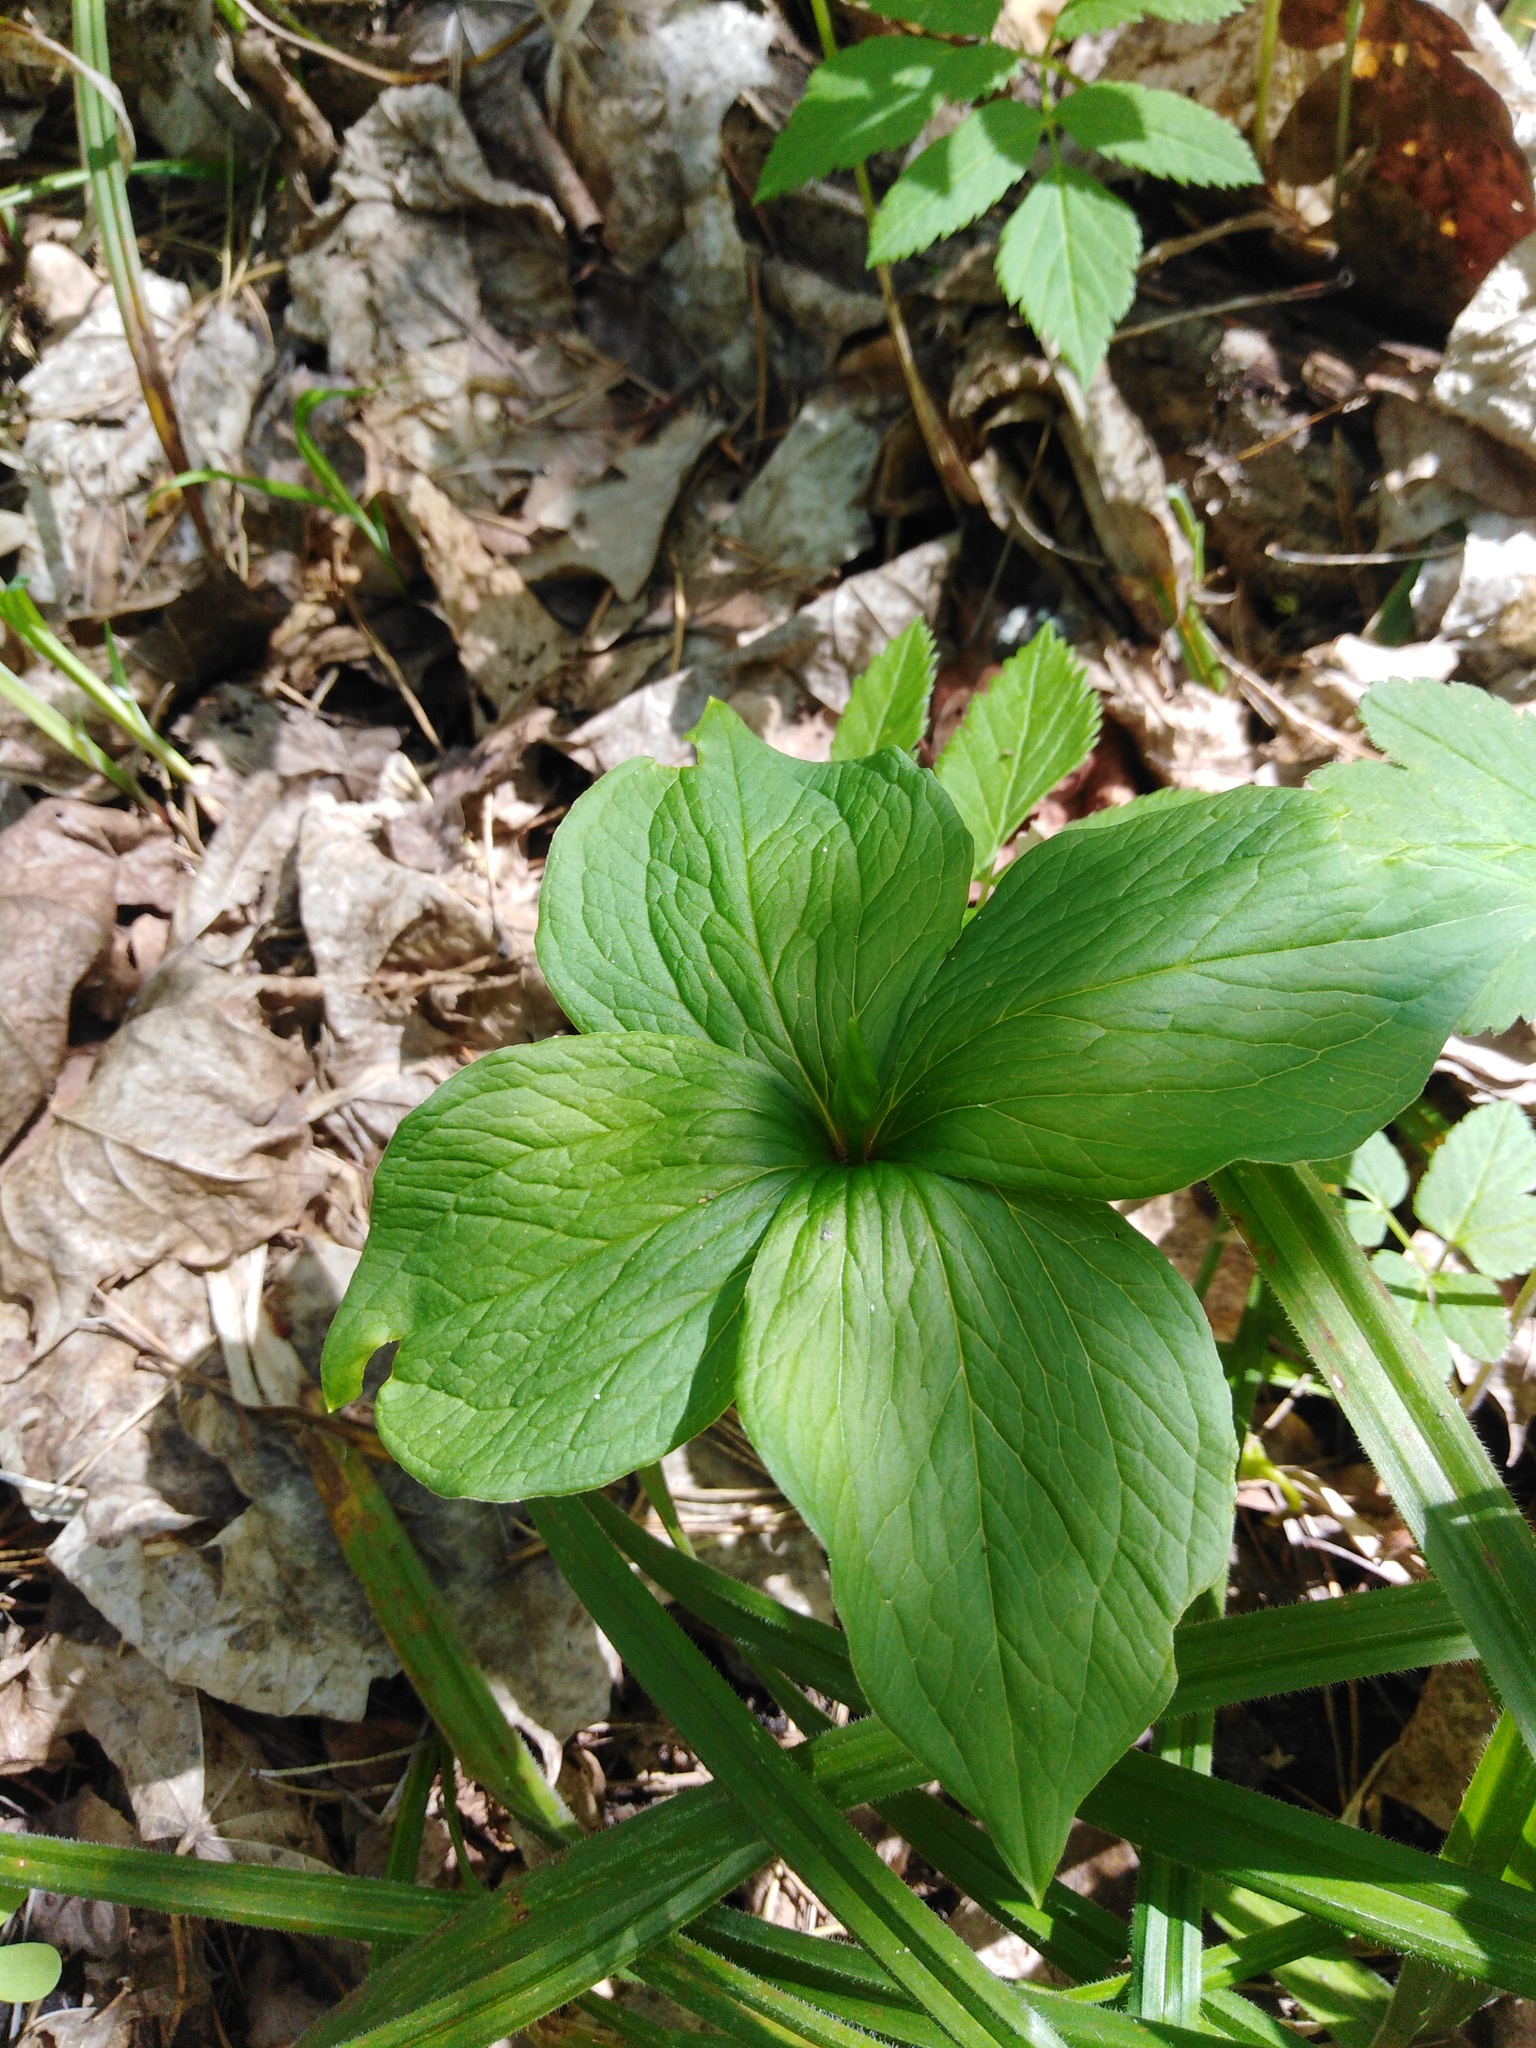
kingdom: Plantae
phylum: Tracheophyta
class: Liliopsida
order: Liliales
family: Melanthiaceae
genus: Paris
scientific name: Paris quadrifolia
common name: Herb-paris
